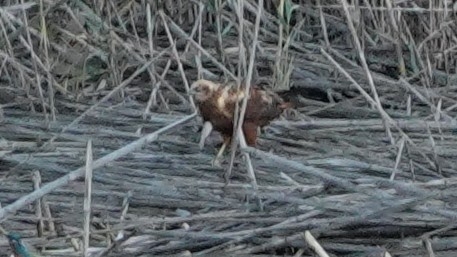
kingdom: Animalia
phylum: Chordata
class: Aves
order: Accipitriformes
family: Accipitridae
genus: Circus
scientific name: Circus aeruginosus
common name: Western marsh harrier
